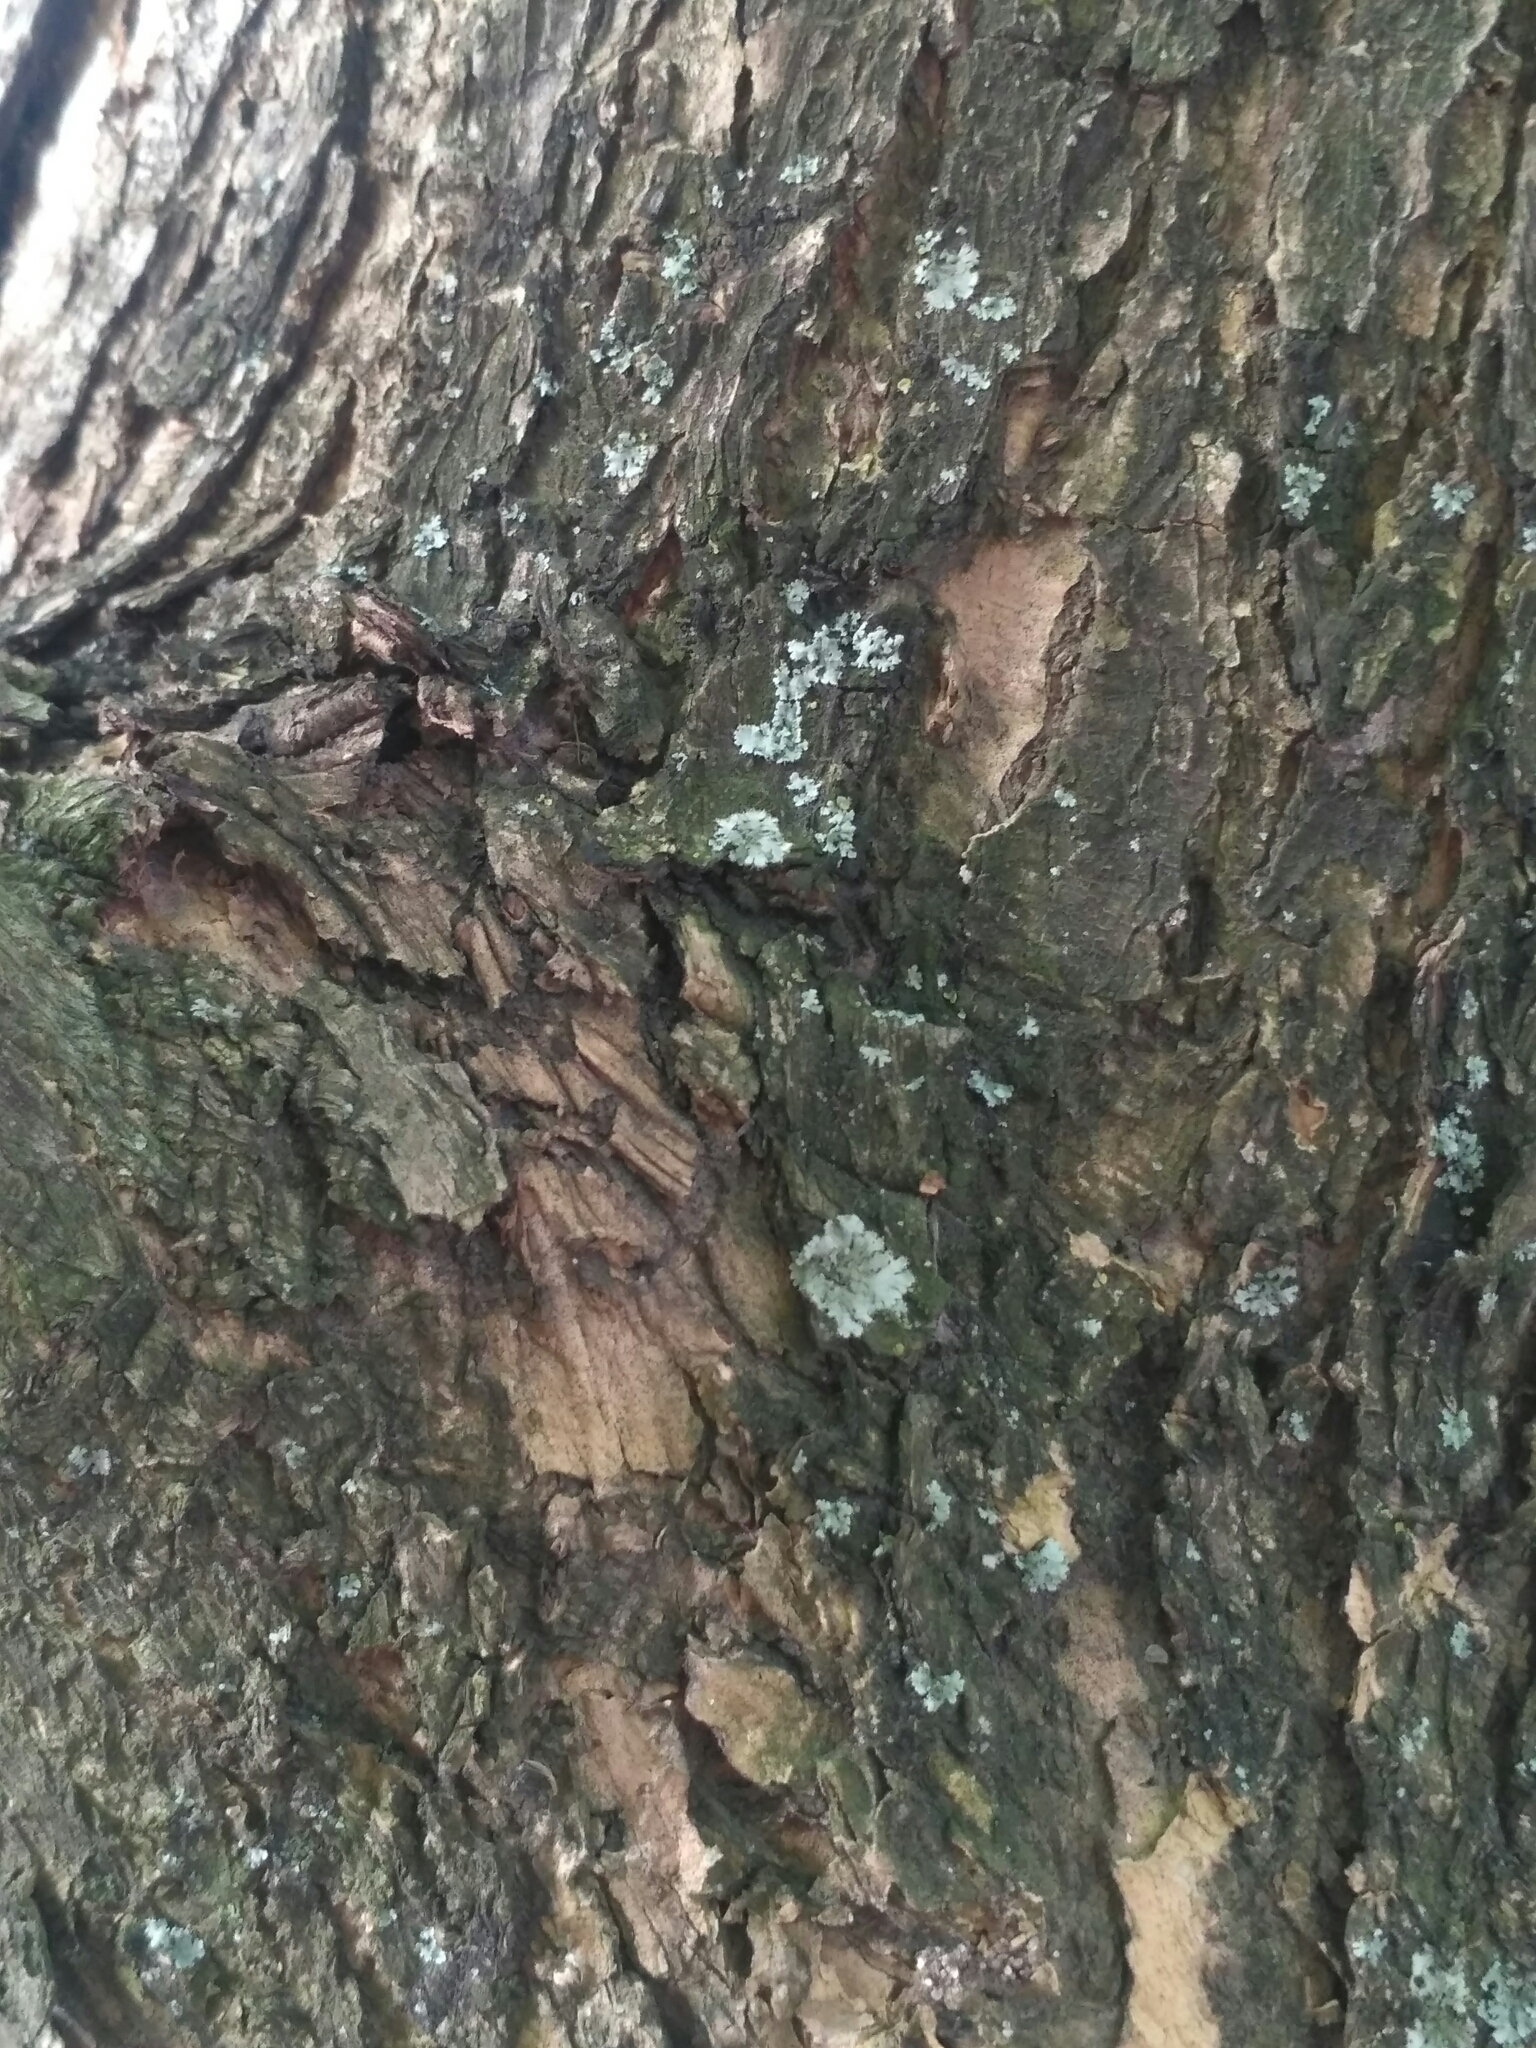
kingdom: Fungi
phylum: Ascomycota
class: Lecanoromycetes
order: Caliciales
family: Physciaceae
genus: Phaeophyscia
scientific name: Phaeophyscia orbicularis
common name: Mealy shadow lichen
